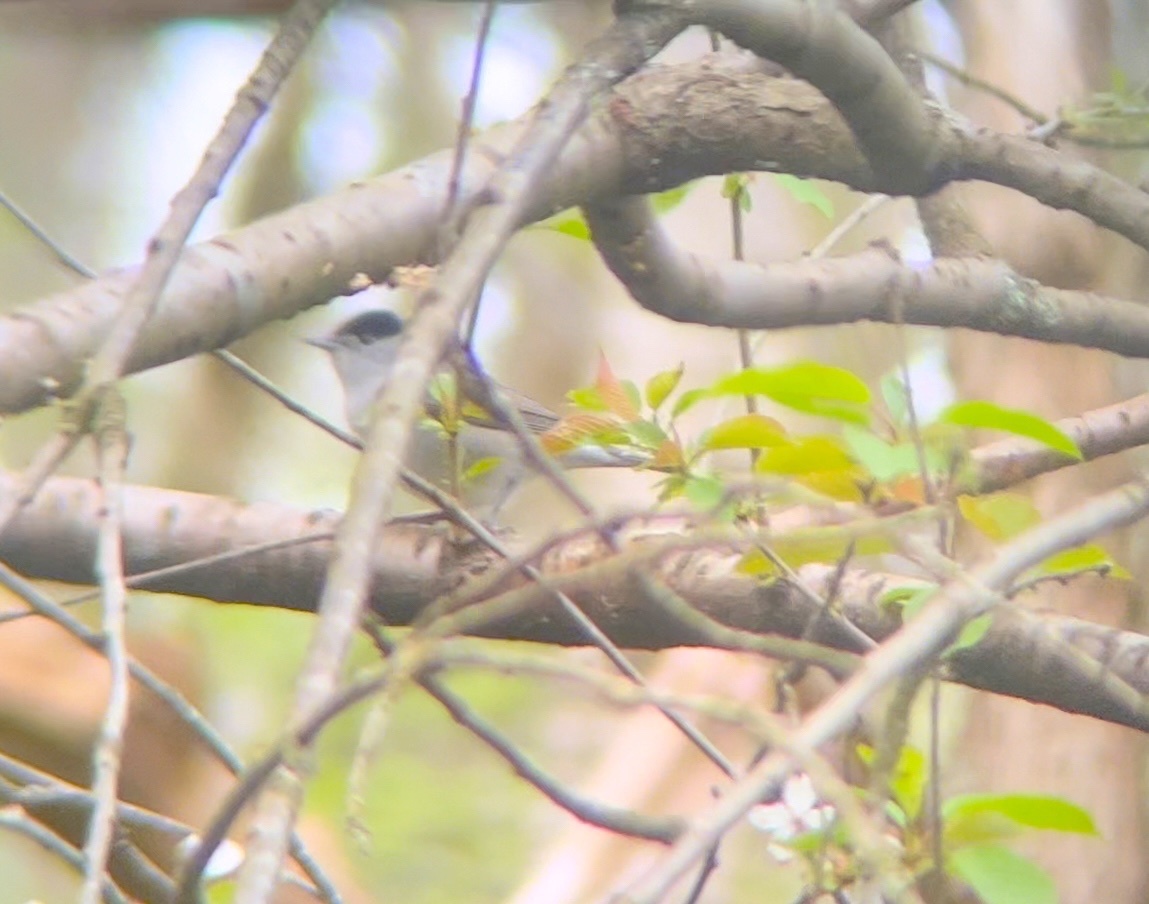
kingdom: Animalia
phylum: Chordata
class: Aves
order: Passeriformes
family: Sylviidae
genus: Sylvia
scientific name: Sylvia atricapilla
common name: Eurasian blackcap
